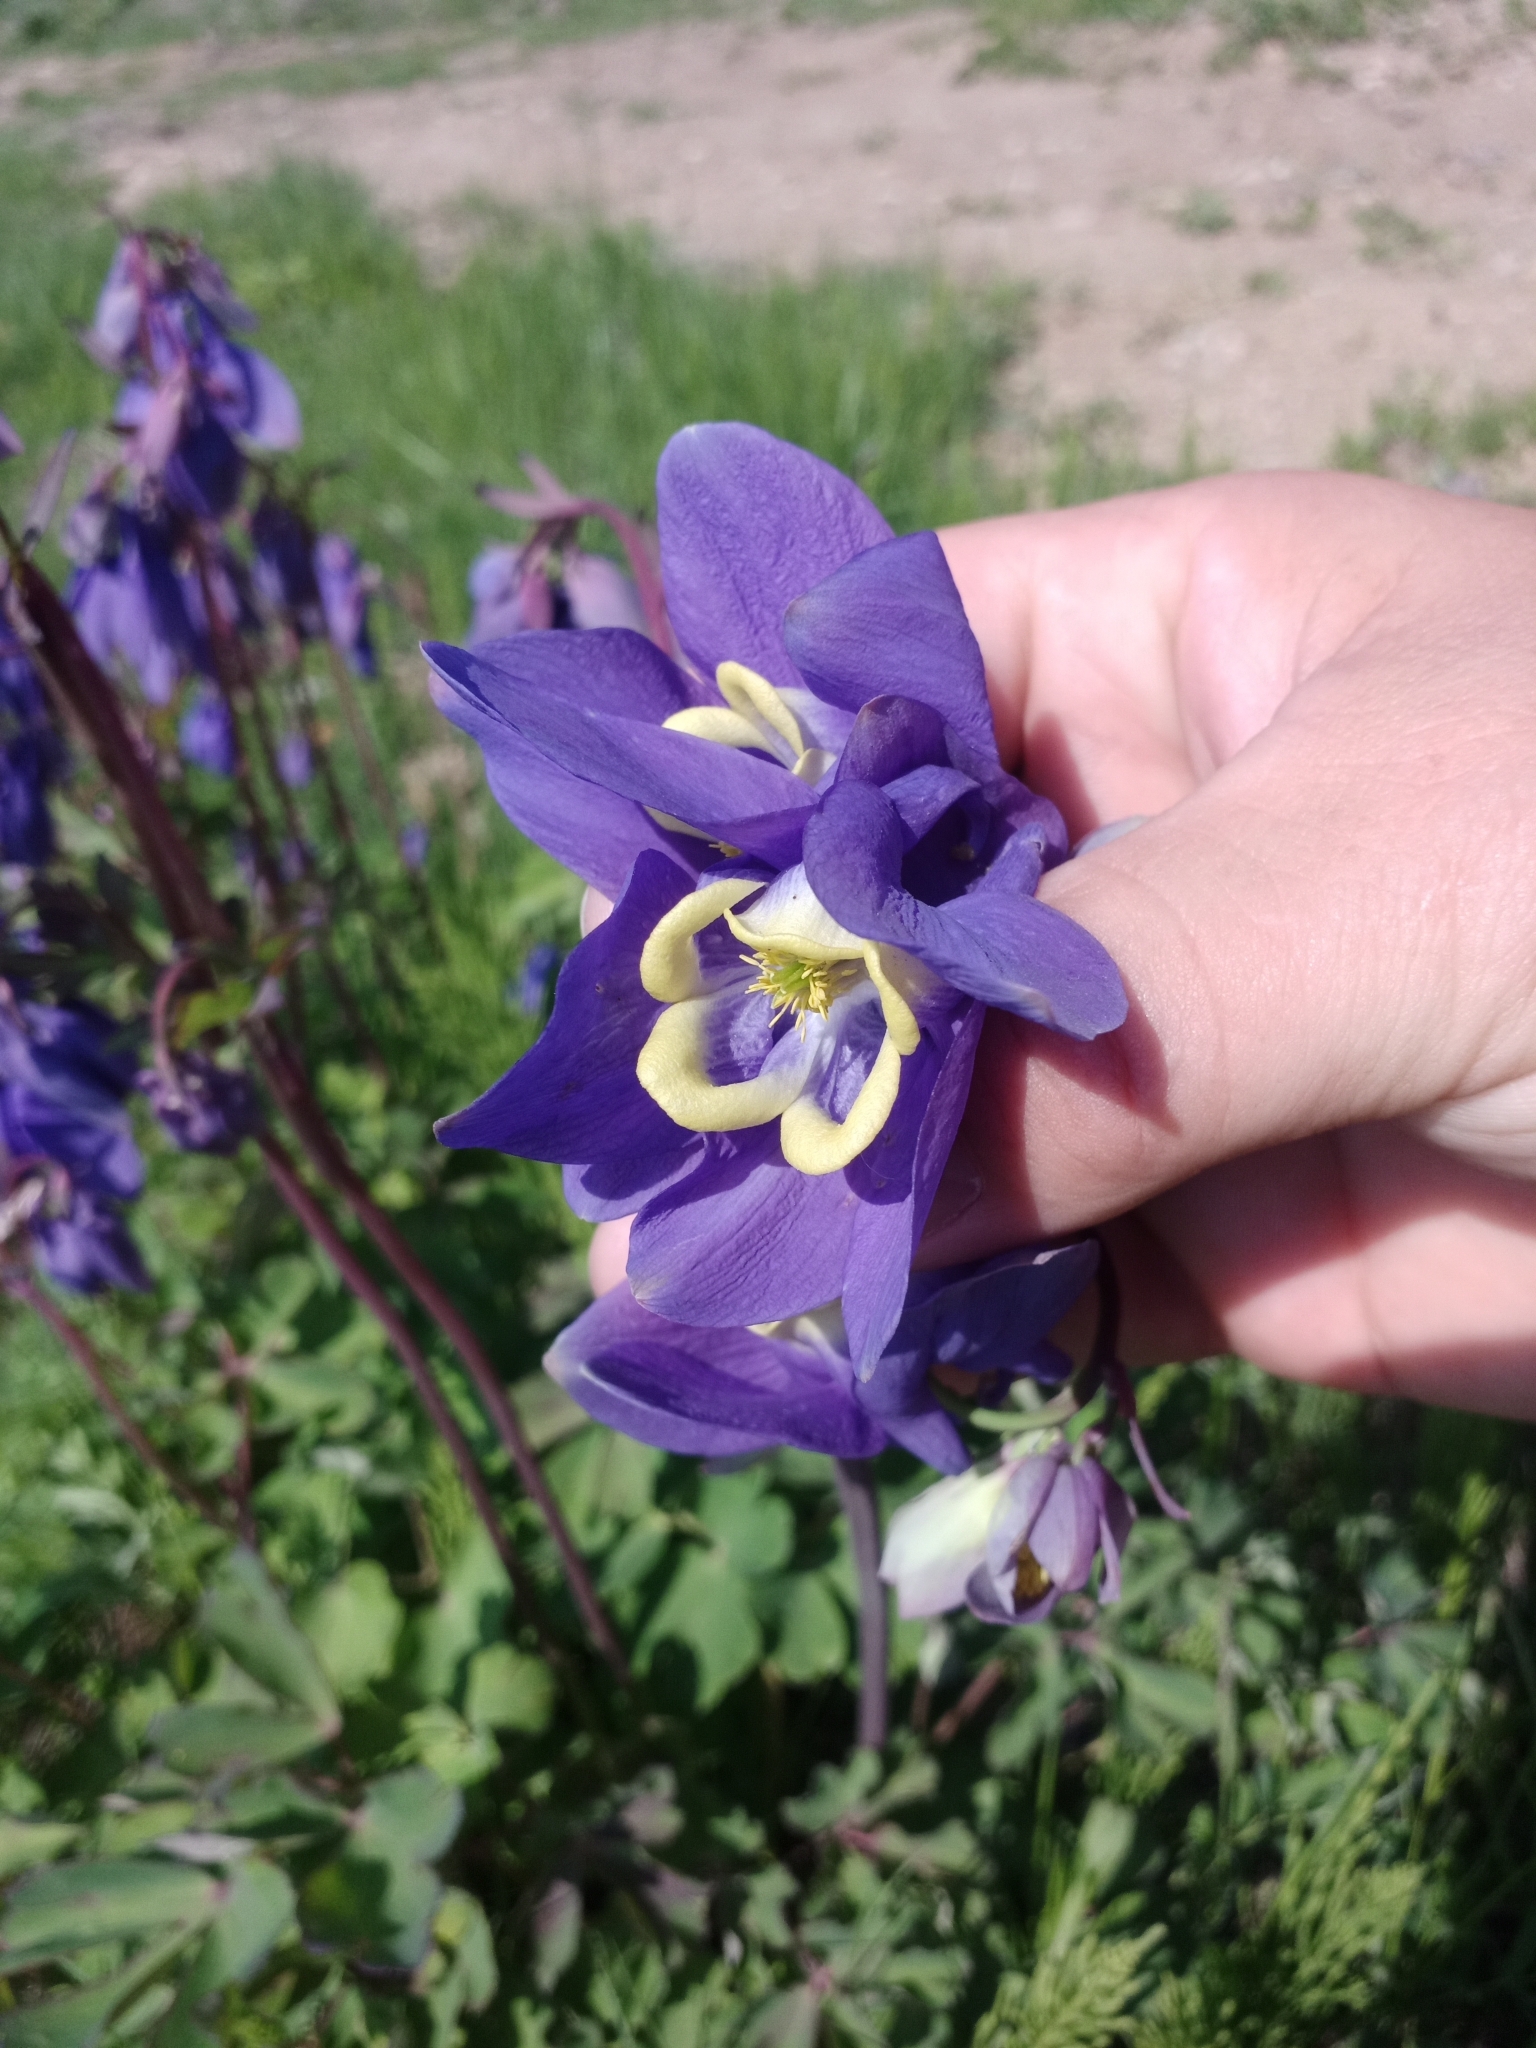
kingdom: Plantae
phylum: Tracheophyta
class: Magnoliopsida
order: Ranunculales
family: Ranunculaceae
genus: Aquilegia
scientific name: Aquilegia sibirica
